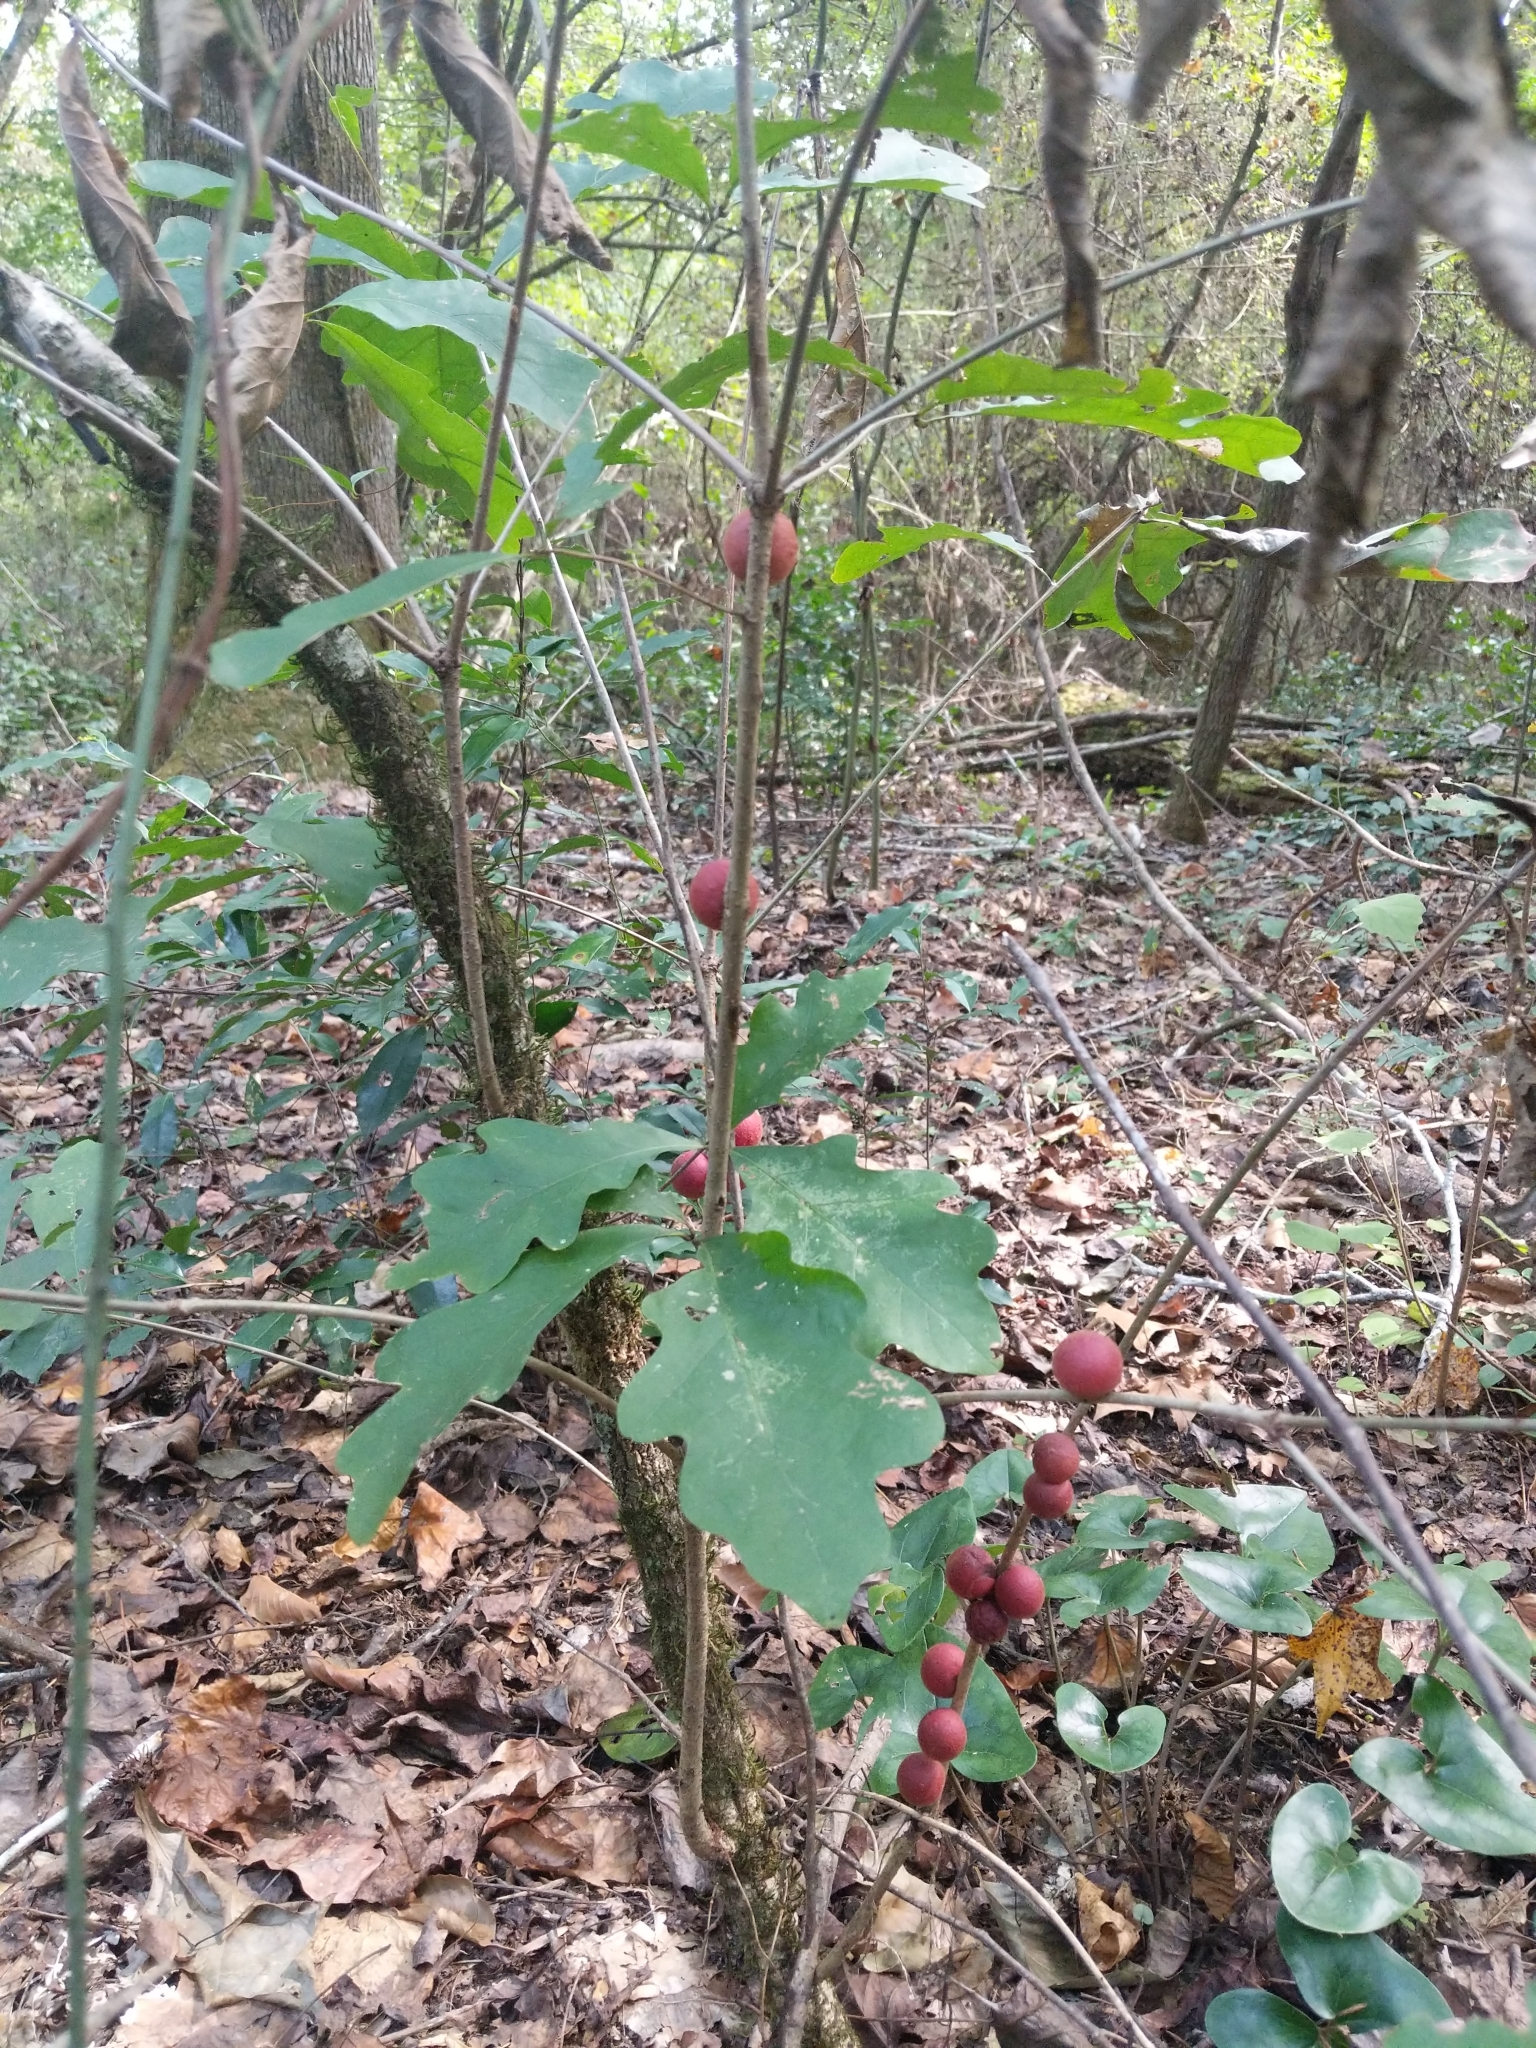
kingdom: Animalia
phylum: Arthropoda
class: Insecta
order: Hymenoptera
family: Cynipidae
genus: Disholcaspis
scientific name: Disholcaspis
